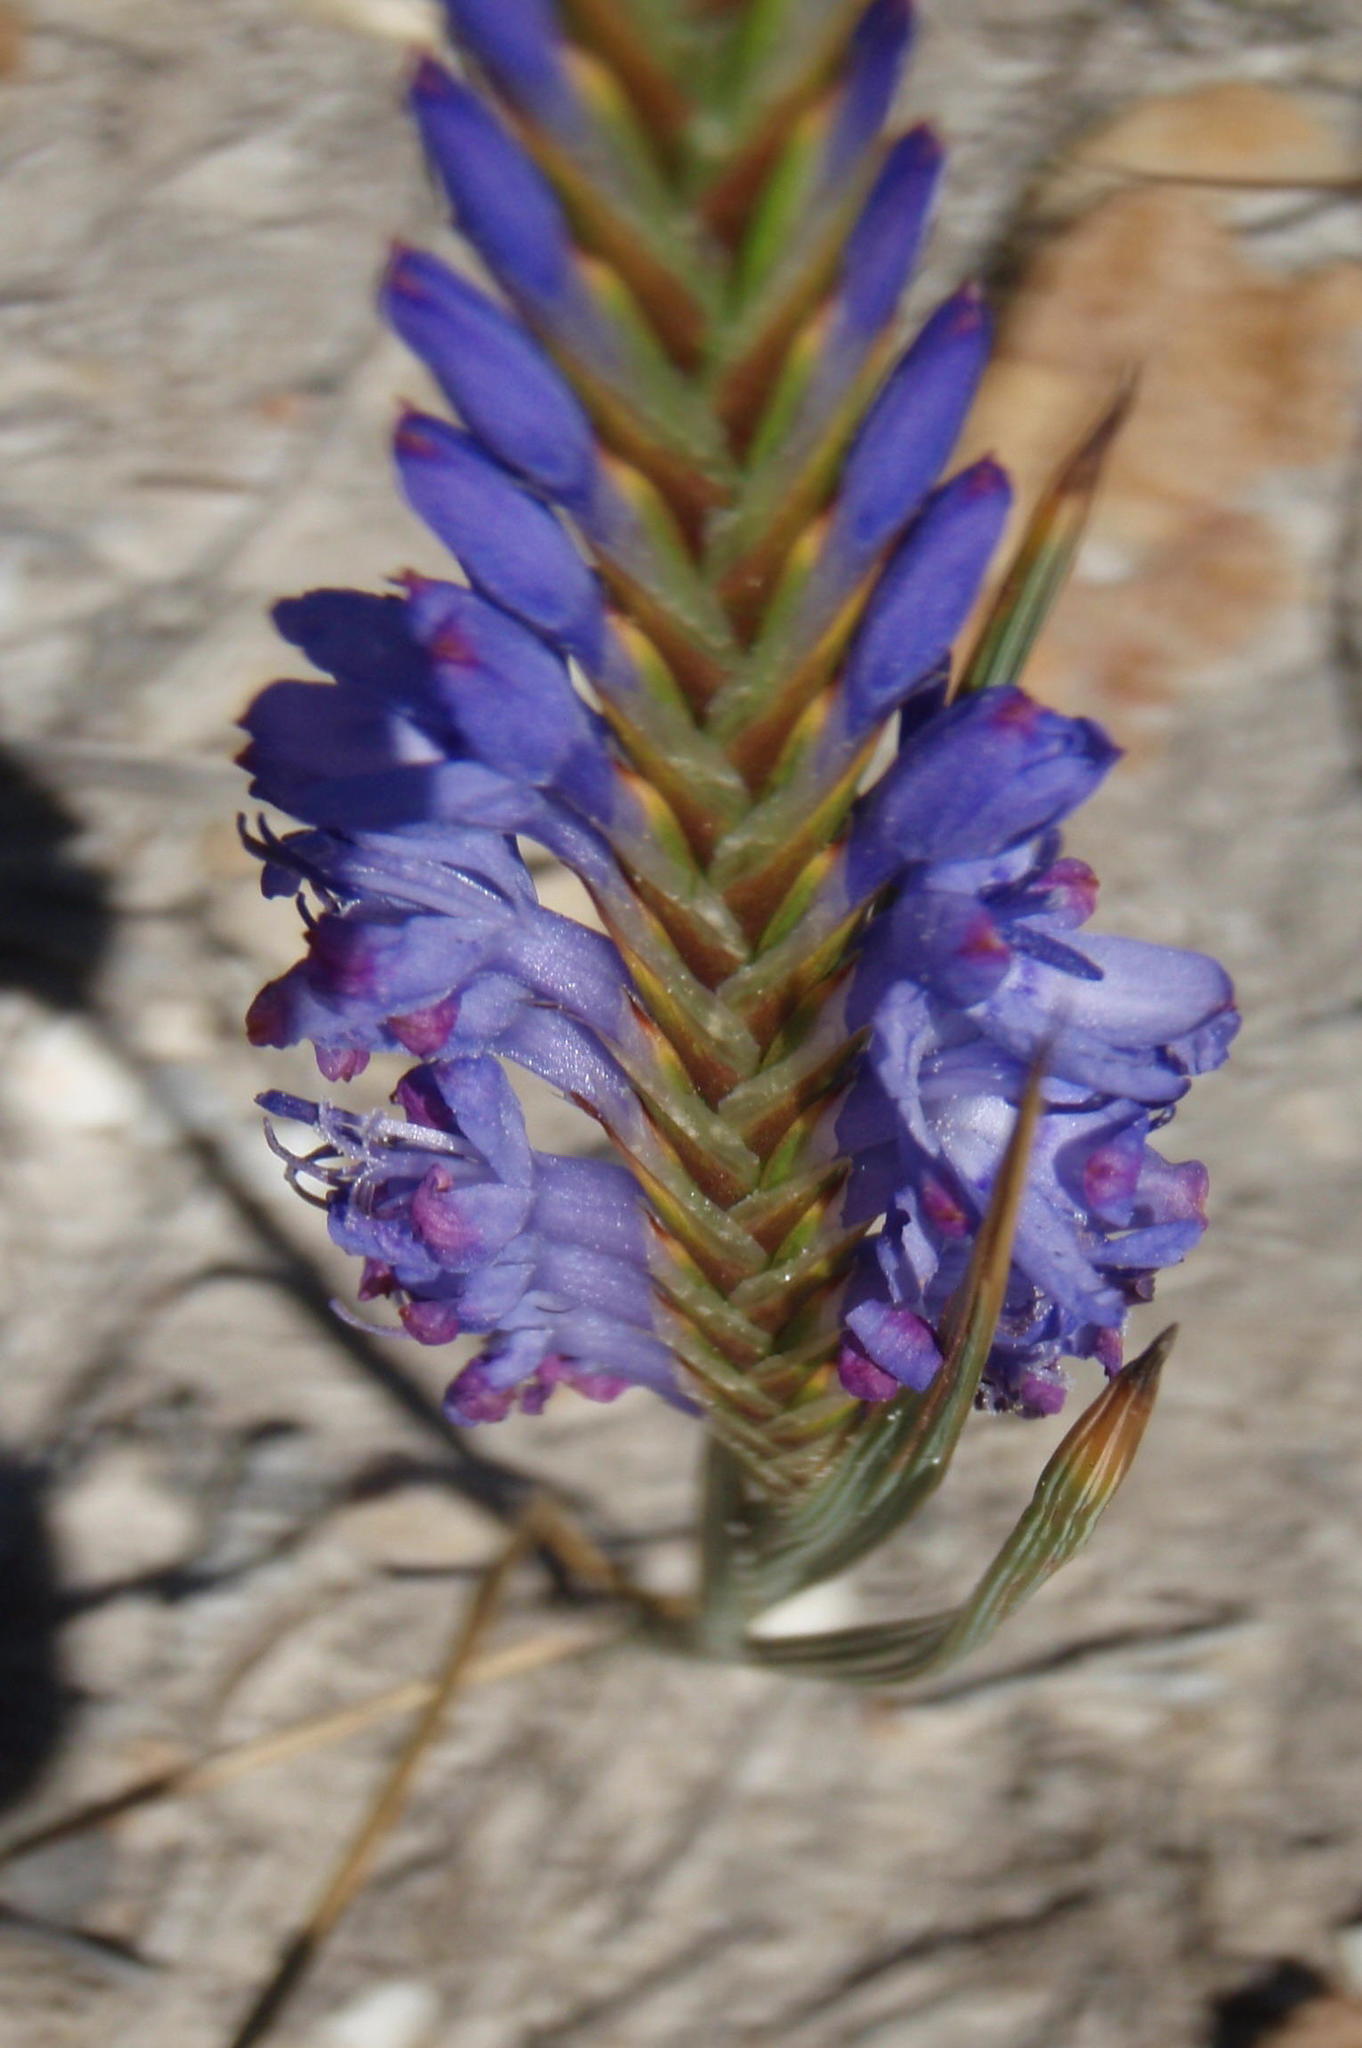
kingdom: Plantae
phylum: Tracheophyta
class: Liliopsida
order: Asparagales
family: Iridaceae
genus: Micranthus
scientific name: Micranthus alopecuroides
